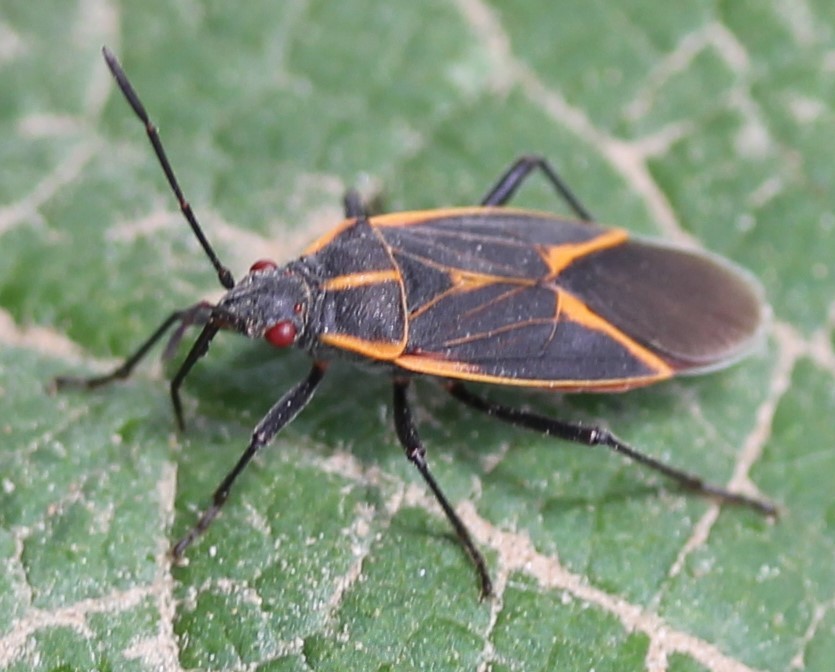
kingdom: Animalia
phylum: Arthropoda
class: Insecta
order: Hemiptera
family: Rhopalidae
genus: Boisea
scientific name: Boisea trivittata
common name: Boxelder bug
